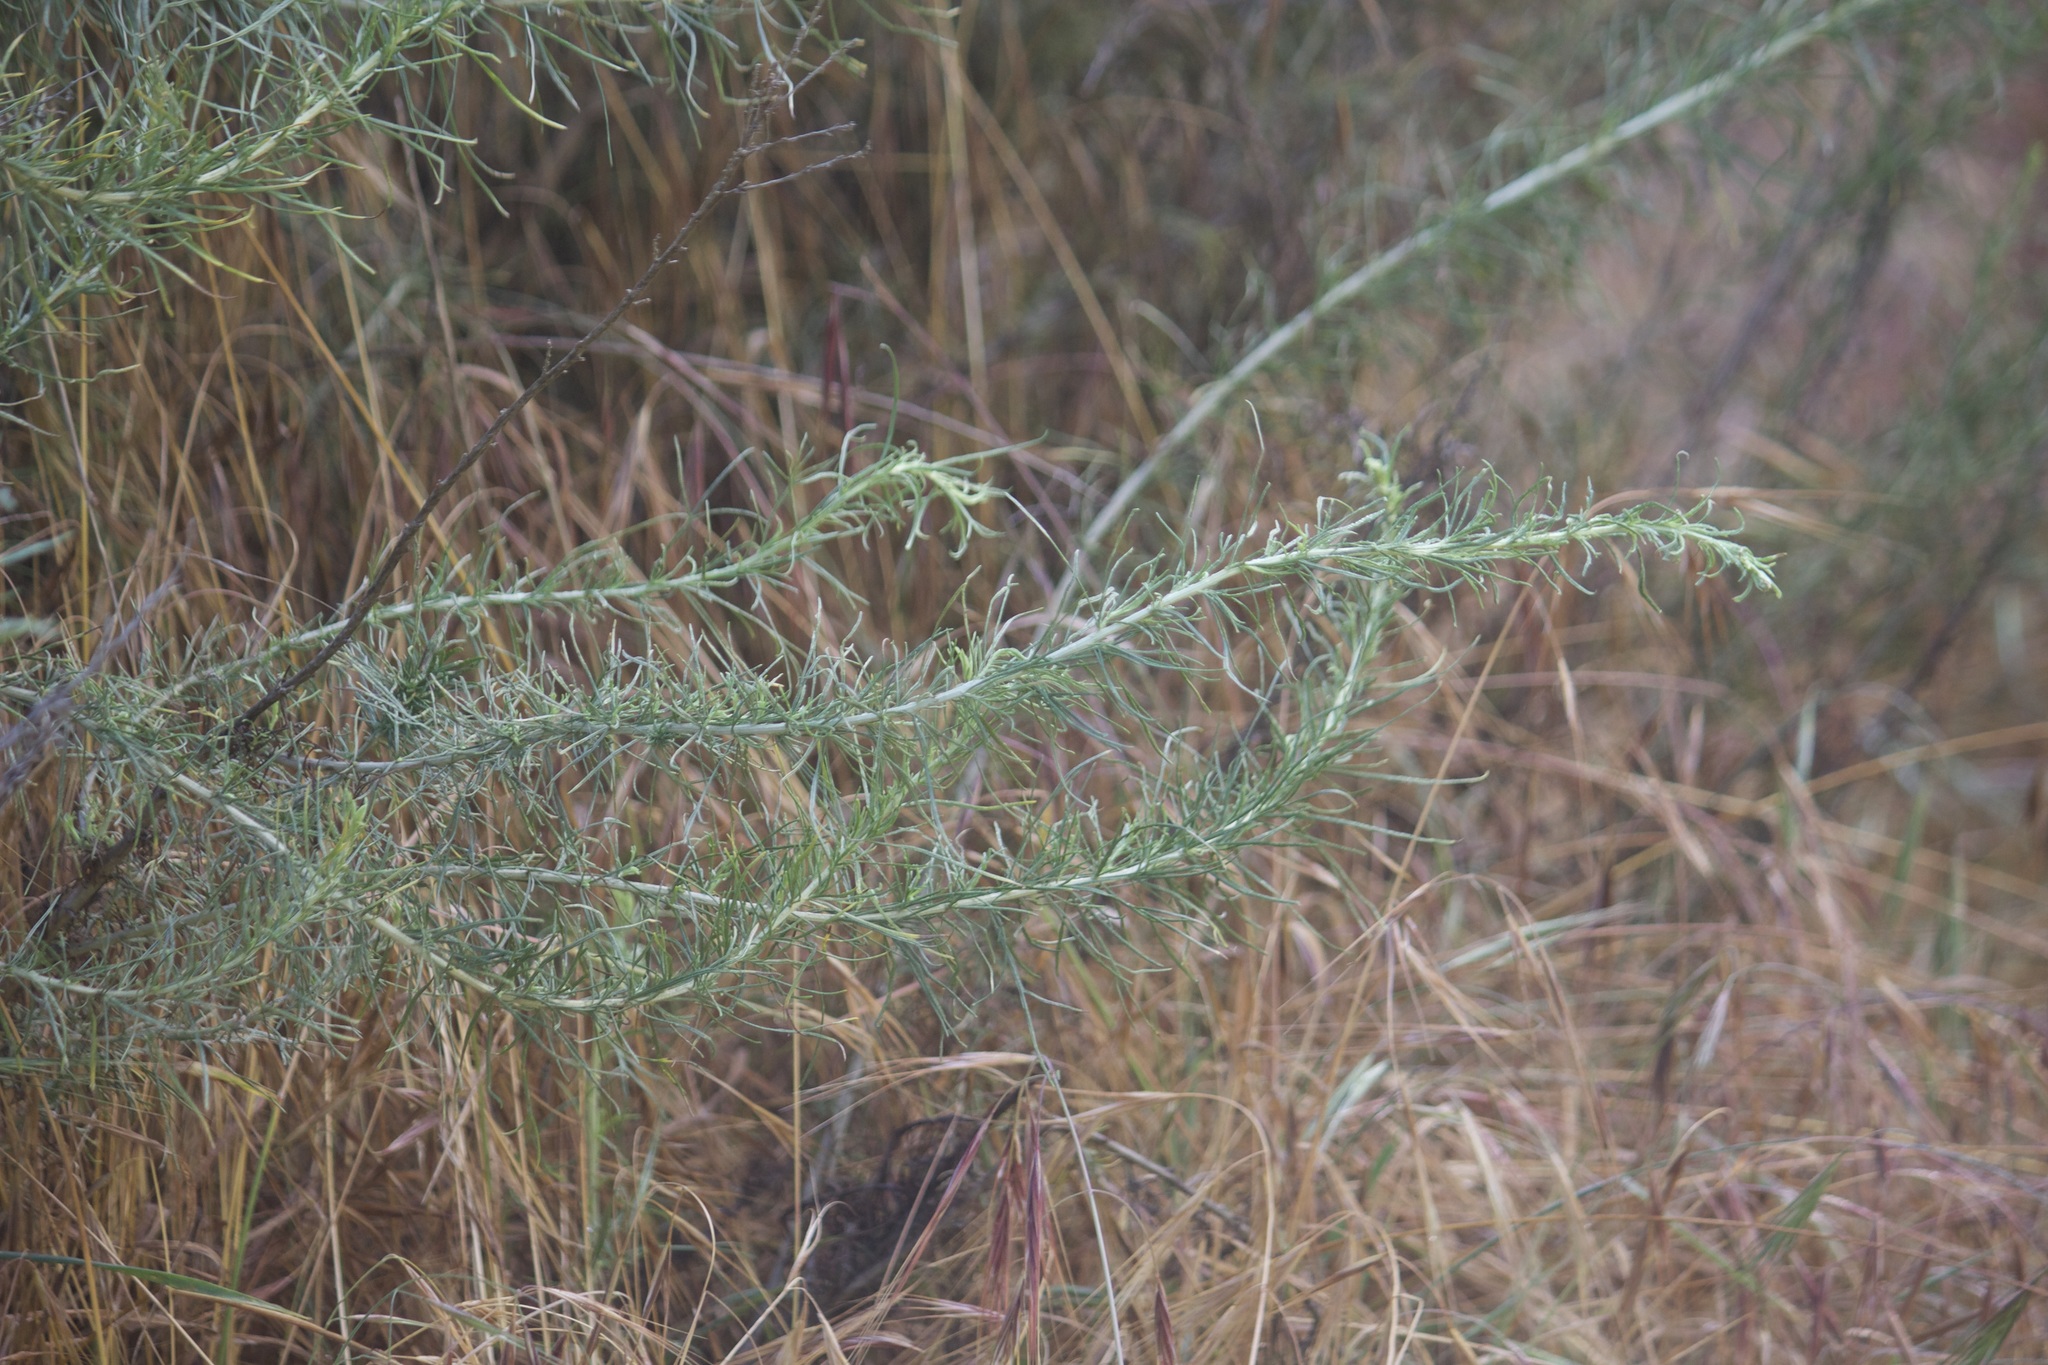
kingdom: Plantae
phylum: Tracheophyta
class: Magnoliopsida
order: Asterales
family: Asteraceae
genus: Artemisia
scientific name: Artemisia californica
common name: California sagebrush
